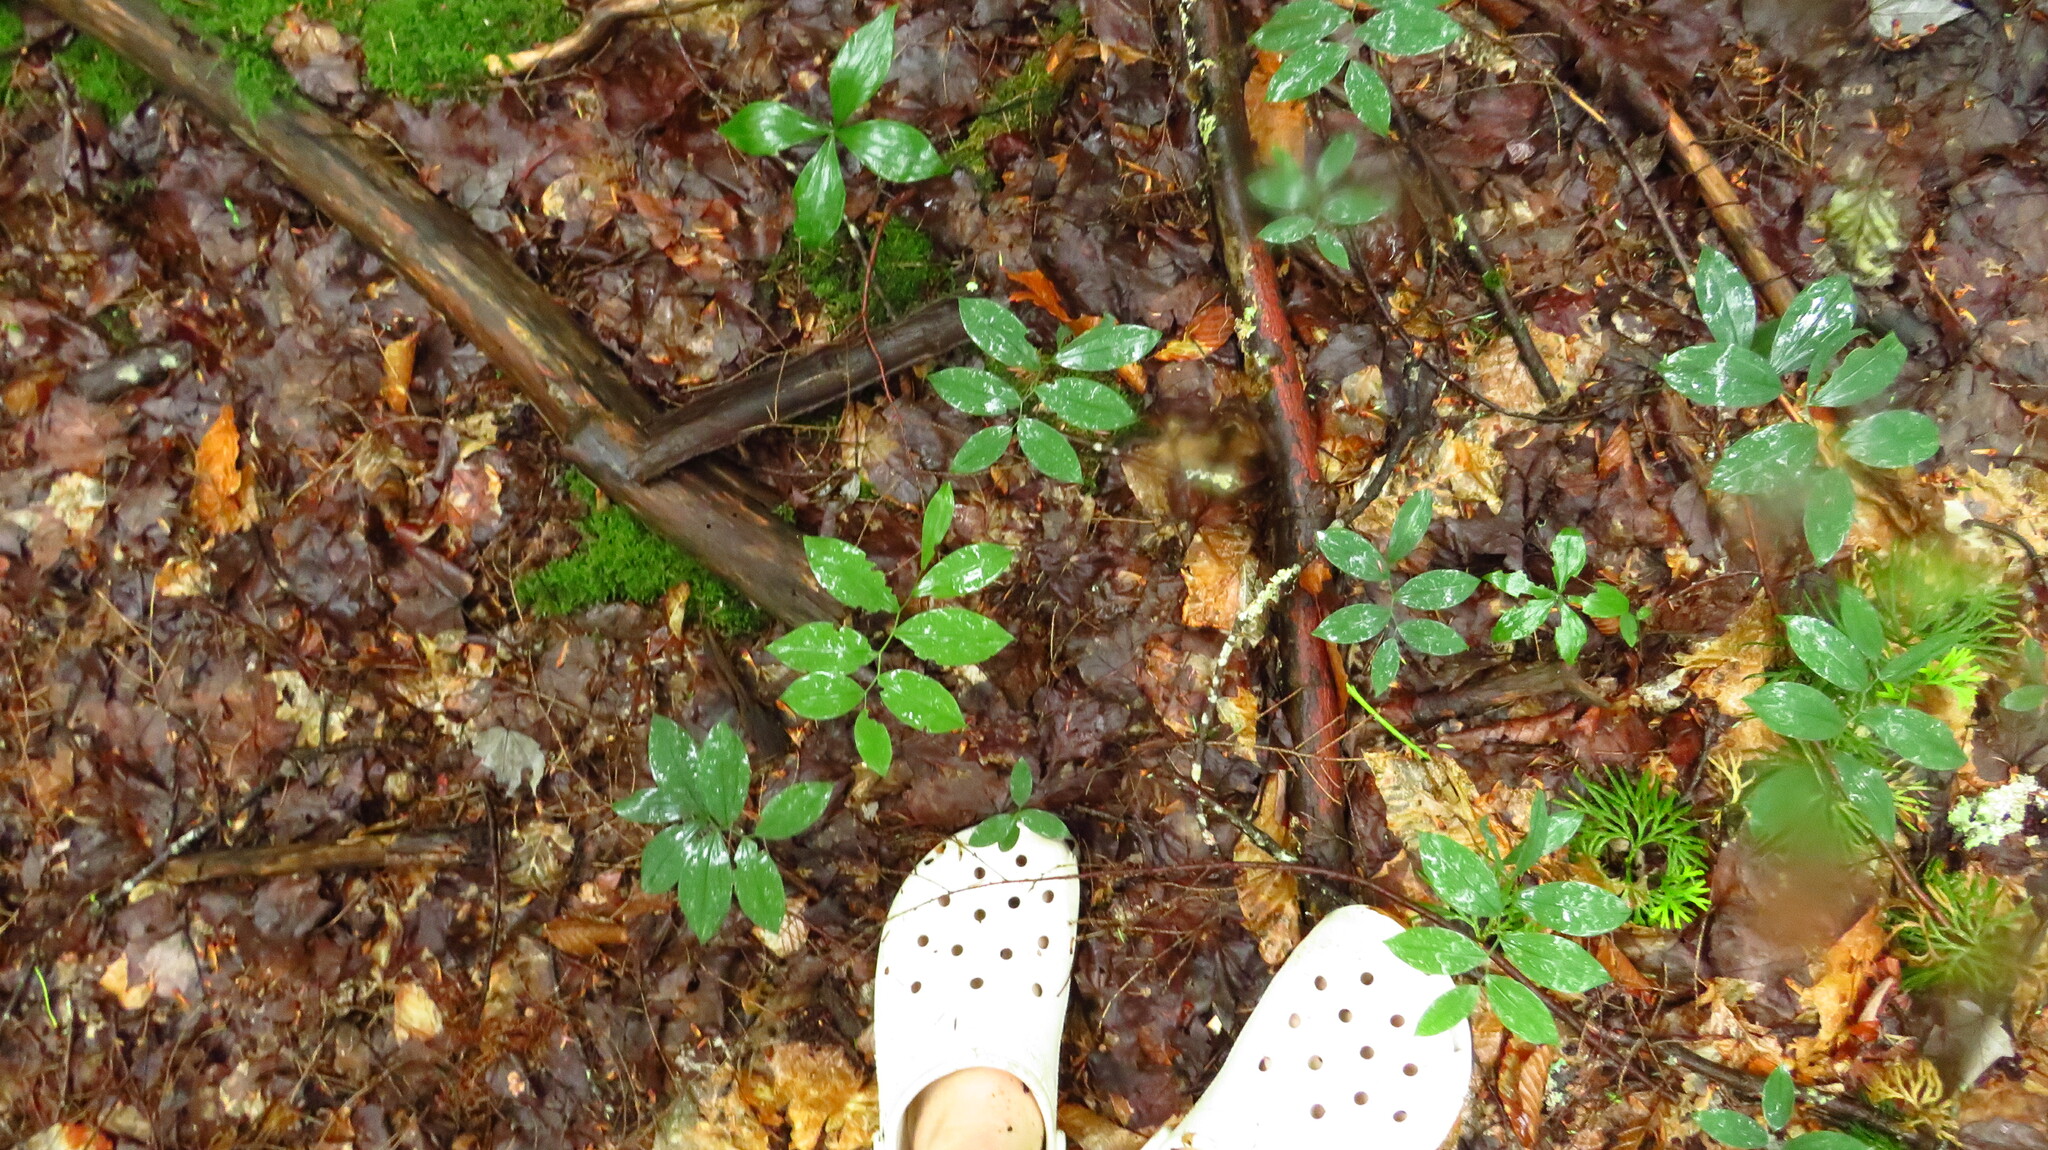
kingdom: Plantae
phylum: Tracheophyta
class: Liliopsida
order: Liliales
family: Colchicaceae
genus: Uvularia
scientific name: Uvularia sessilifolia
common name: Straw-lily
